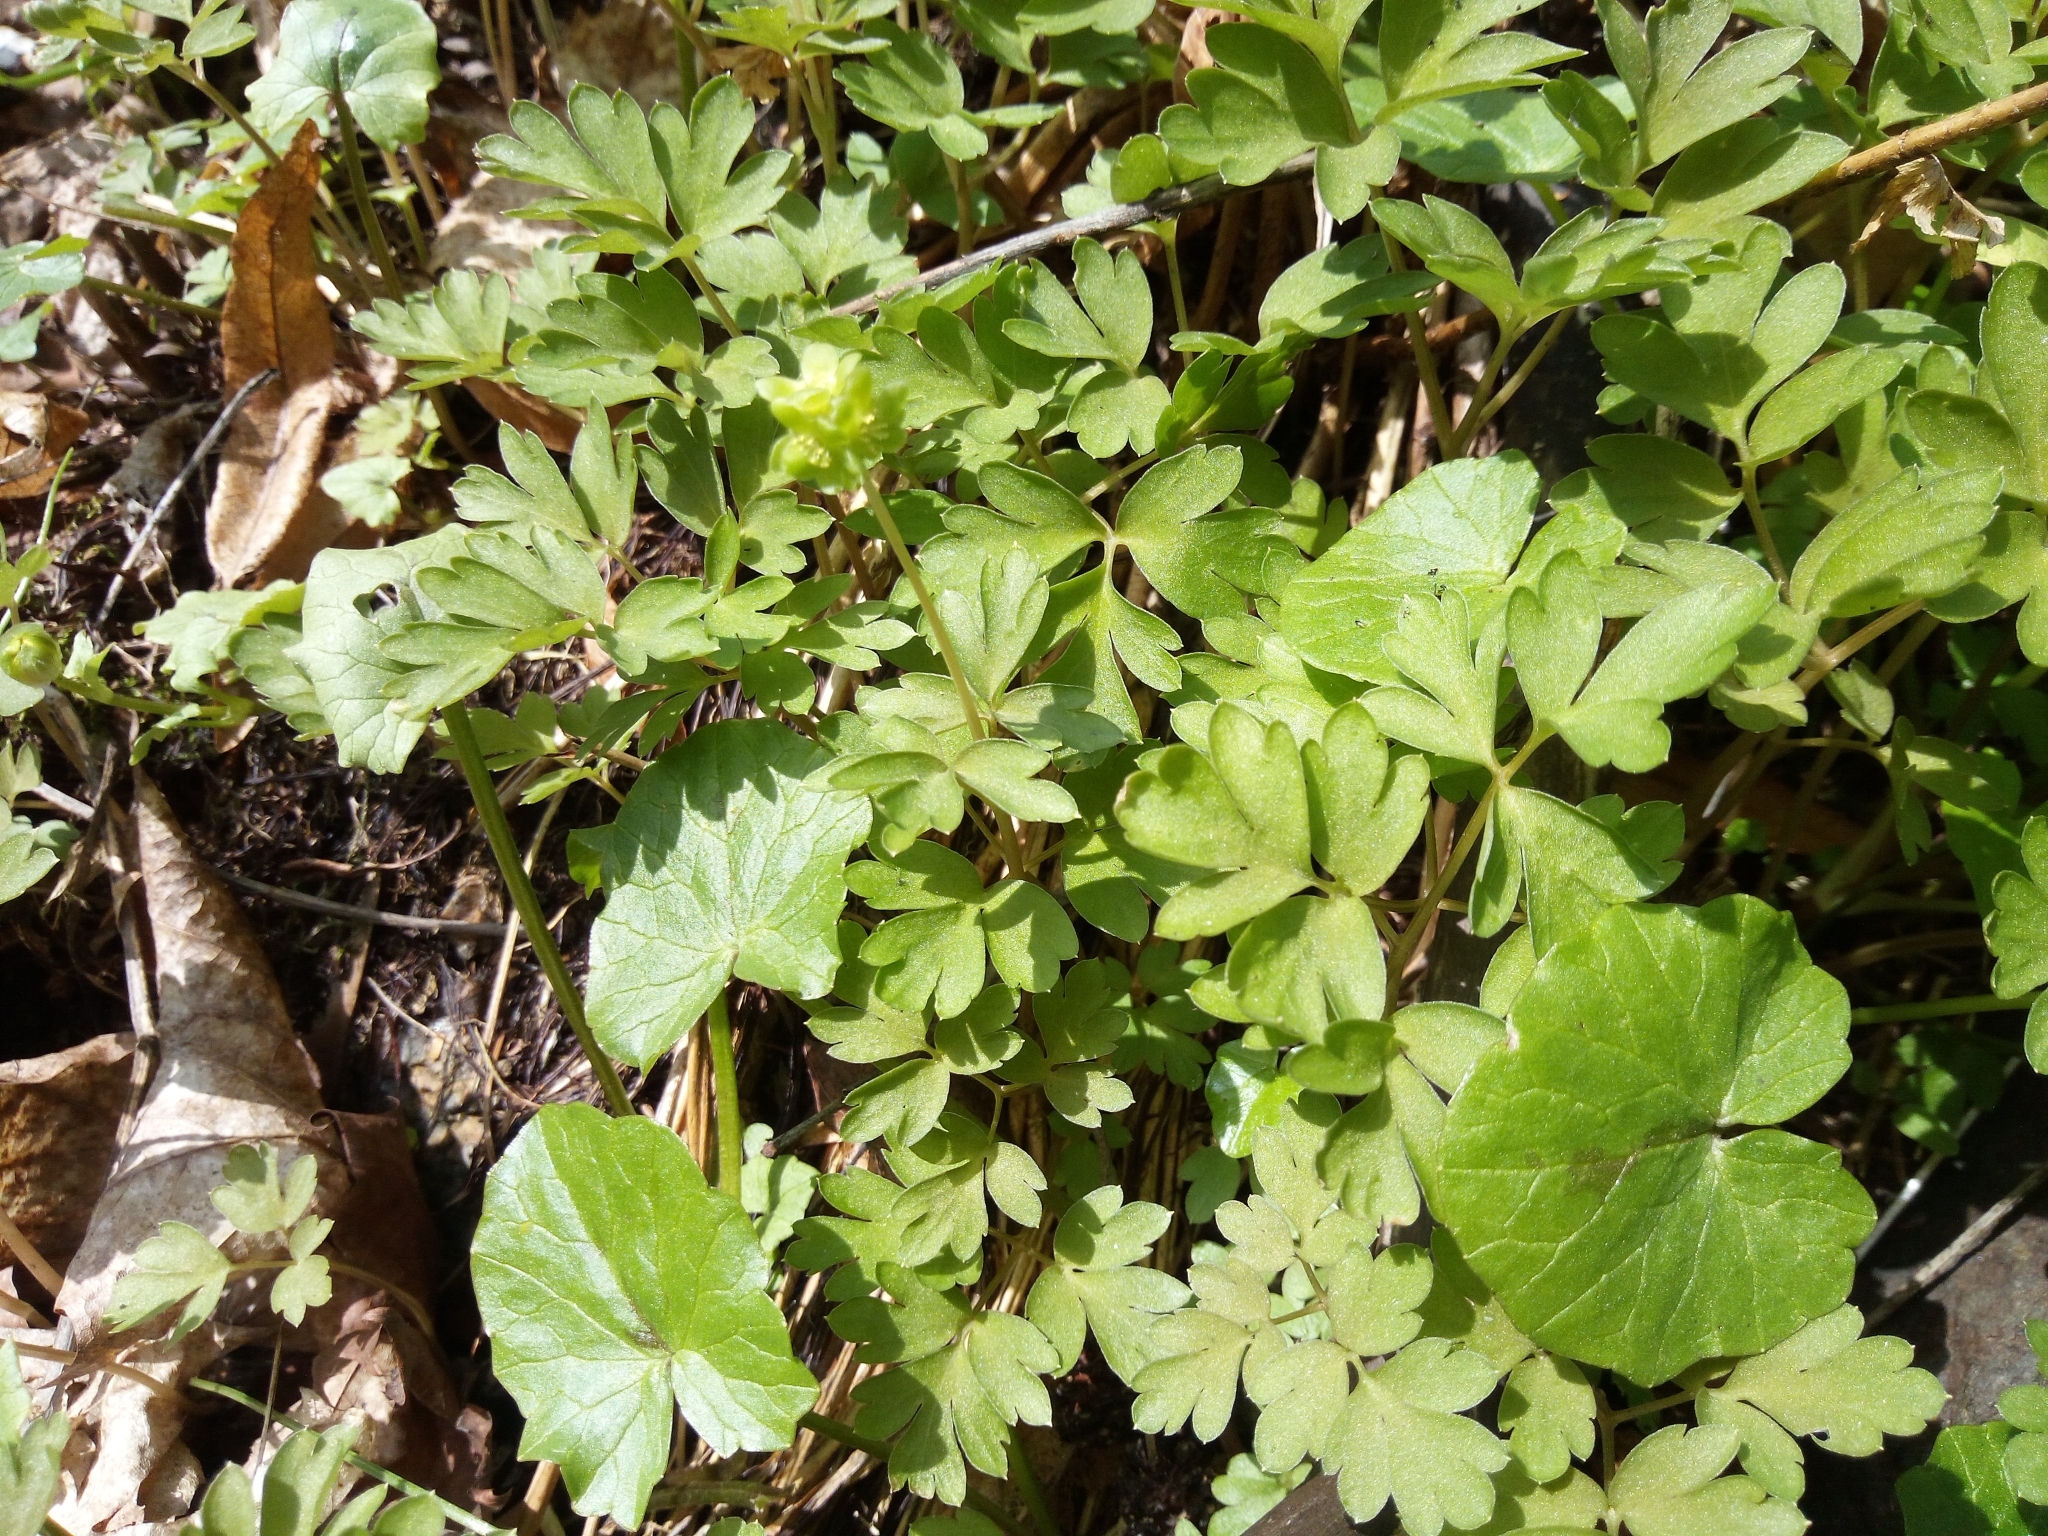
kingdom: Plantae
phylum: Tracheophyta
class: Magnoliopsida
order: Dipsacales
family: Viburnaceae
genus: Adoxa
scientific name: Adoxa moschatellina
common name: Moschatel
